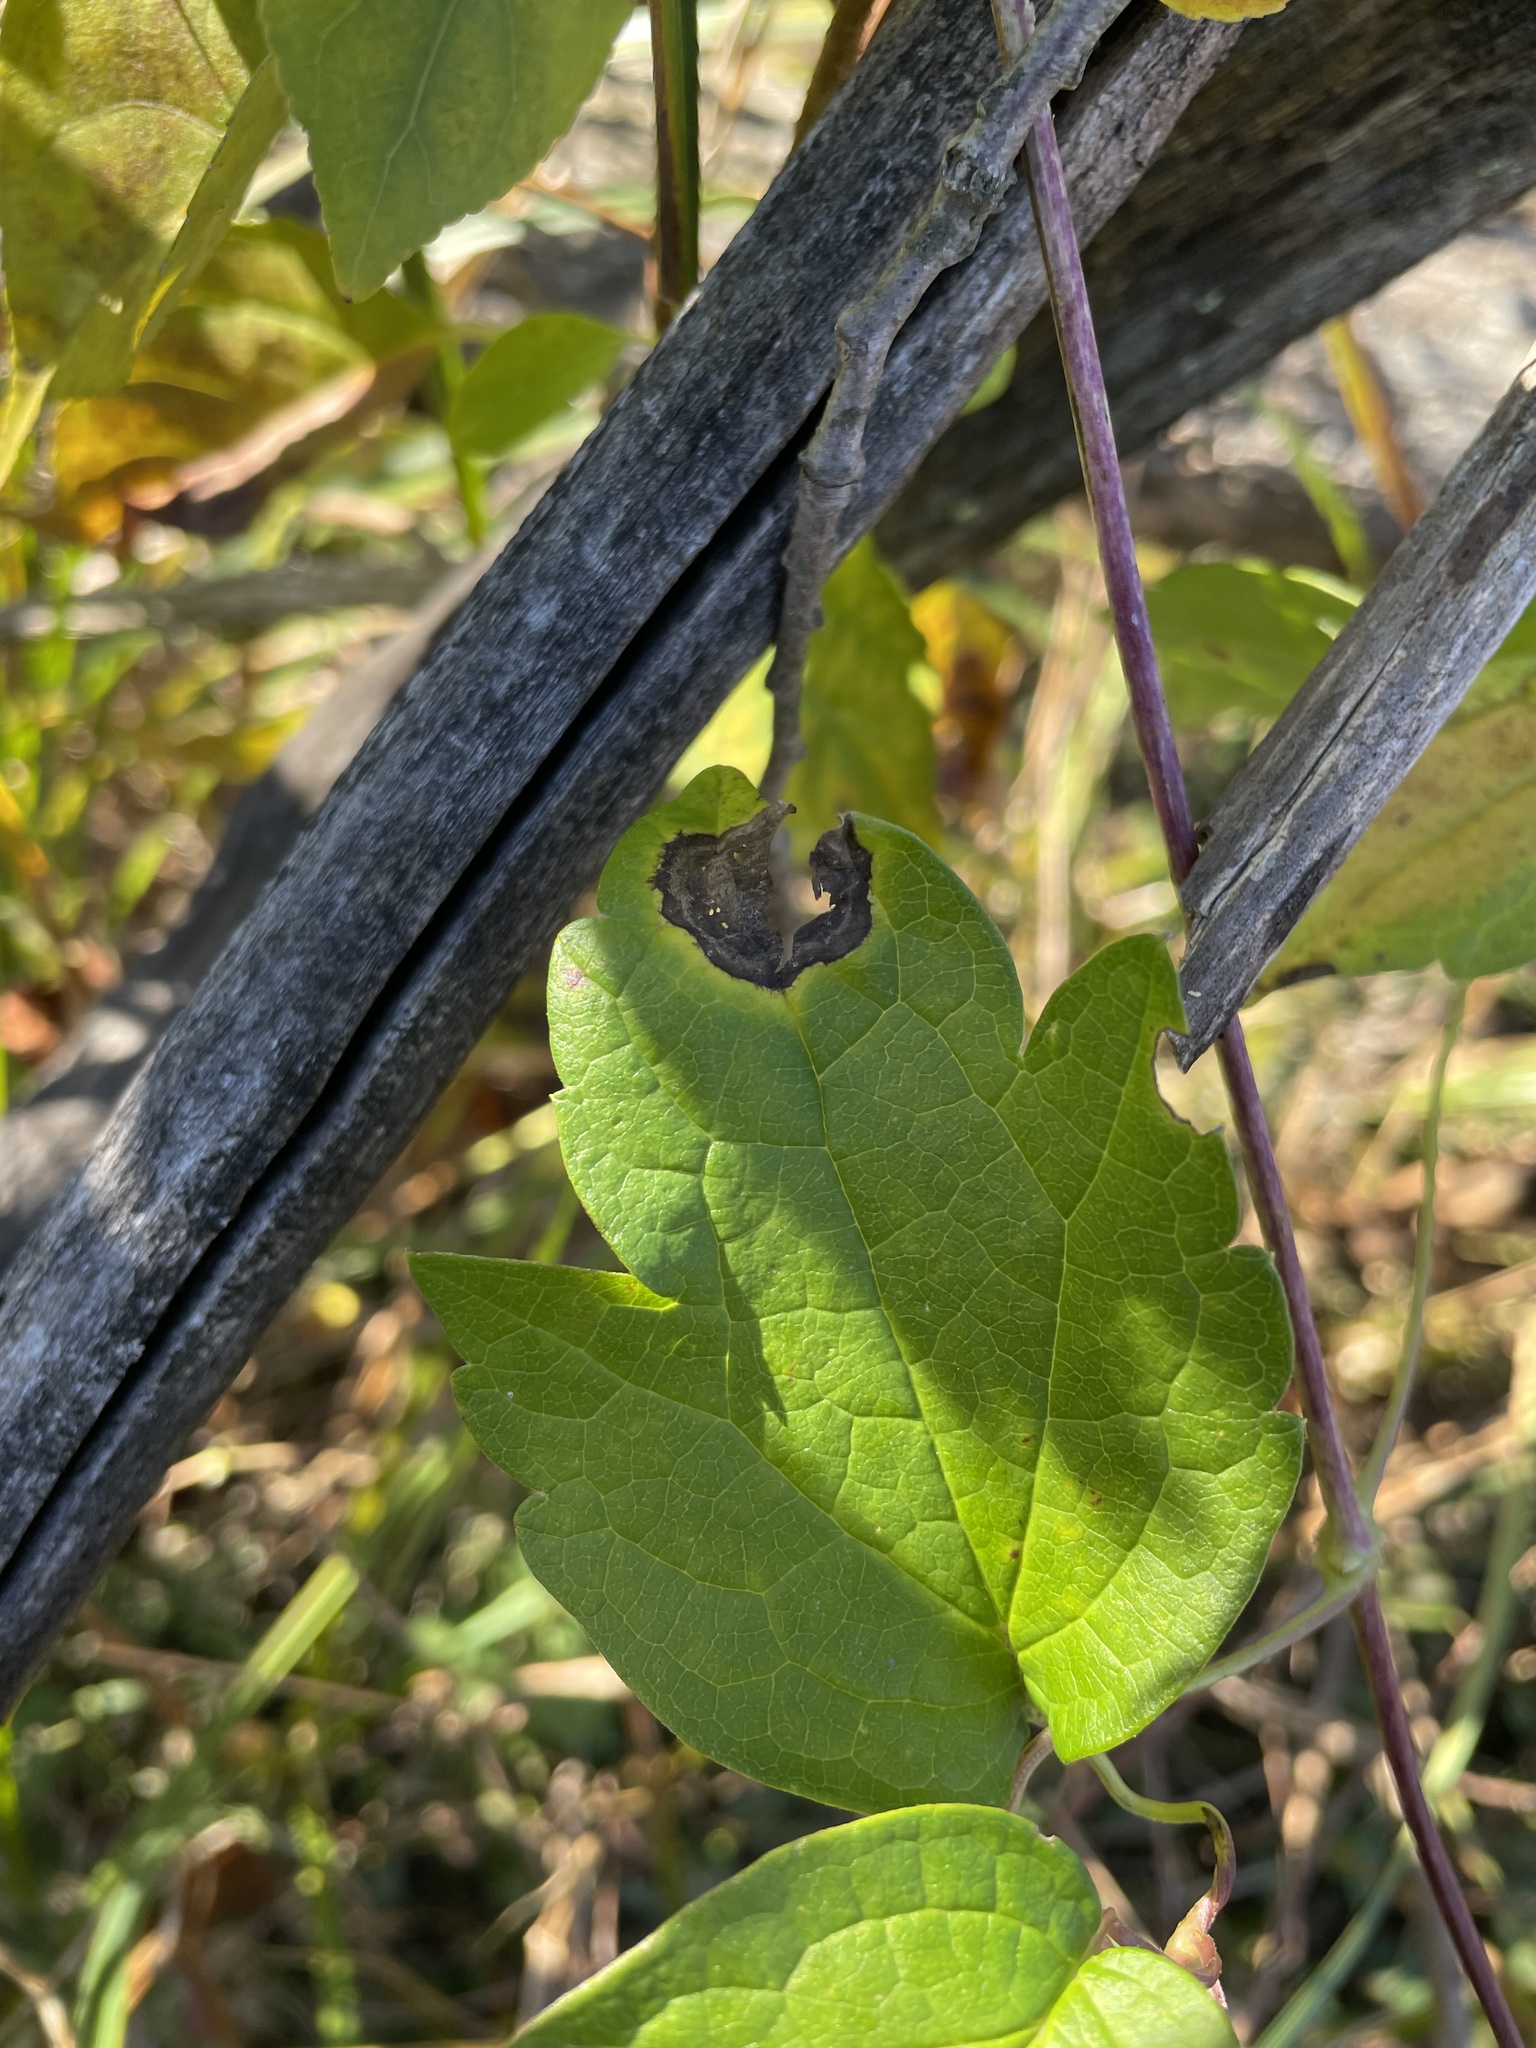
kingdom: Plantae
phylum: Tracheophyta
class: Magnoliopsida
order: Ranunculales
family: Ranunculaceae
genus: Clematis
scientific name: Clematis virginiana
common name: Virgin's-bower
